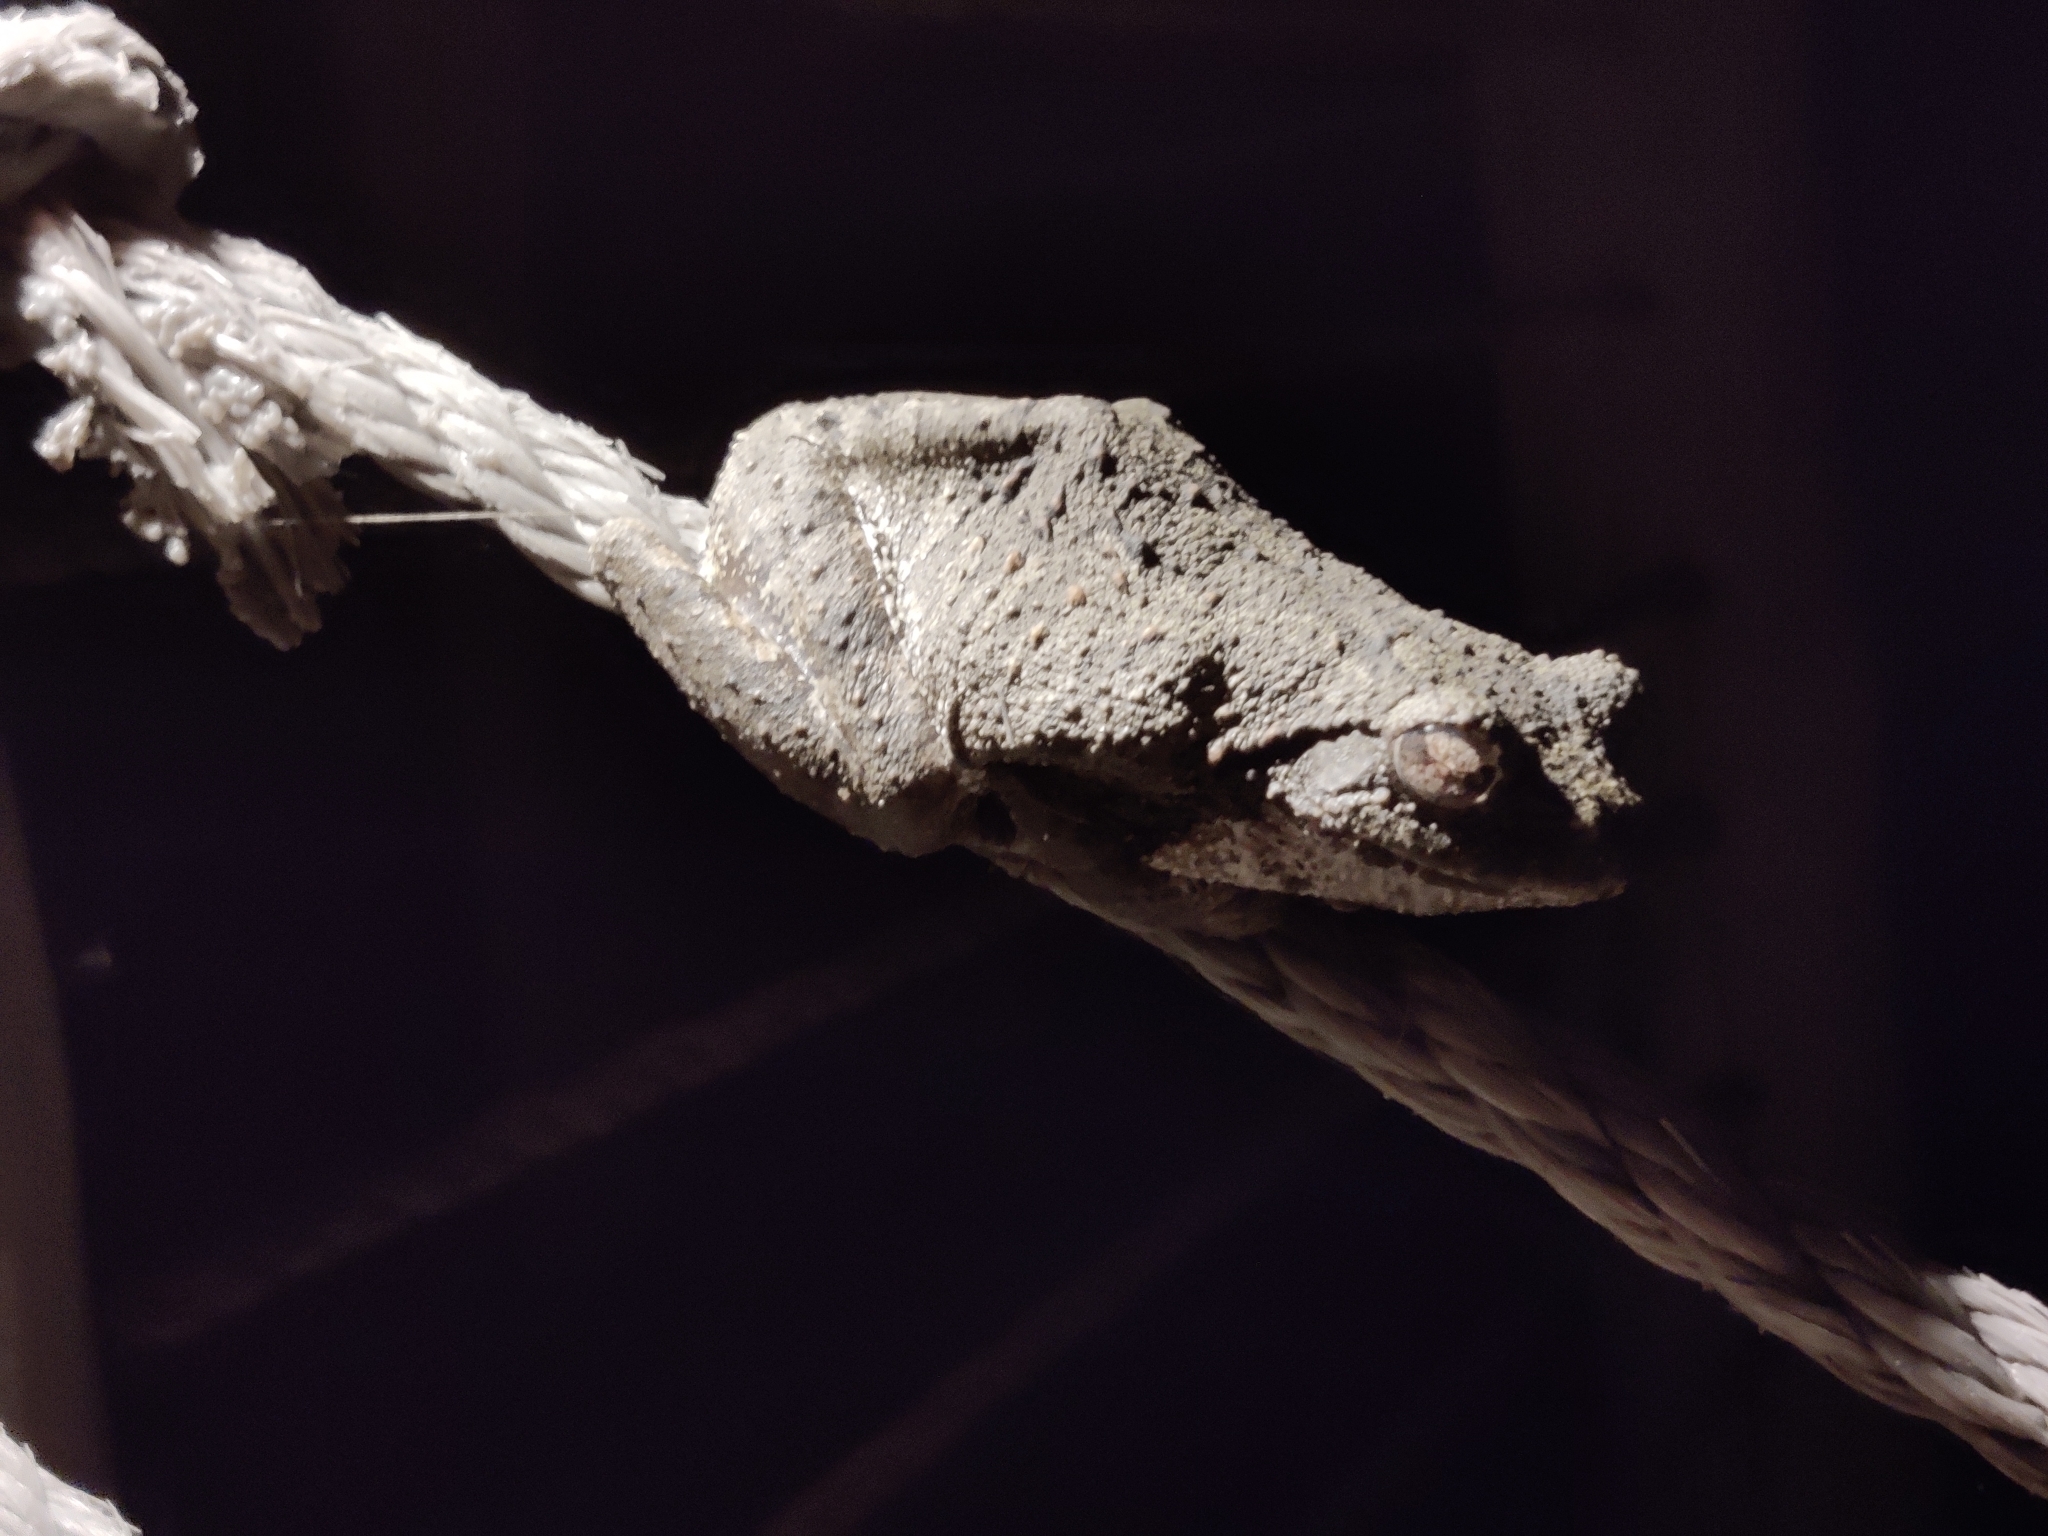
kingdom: Animalia
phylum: Chordata
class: Amphibia
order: Anura
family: Rhacophoridae
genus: Chiromantis
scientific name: Chiromantis xerampelina
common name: African gray treefrog
